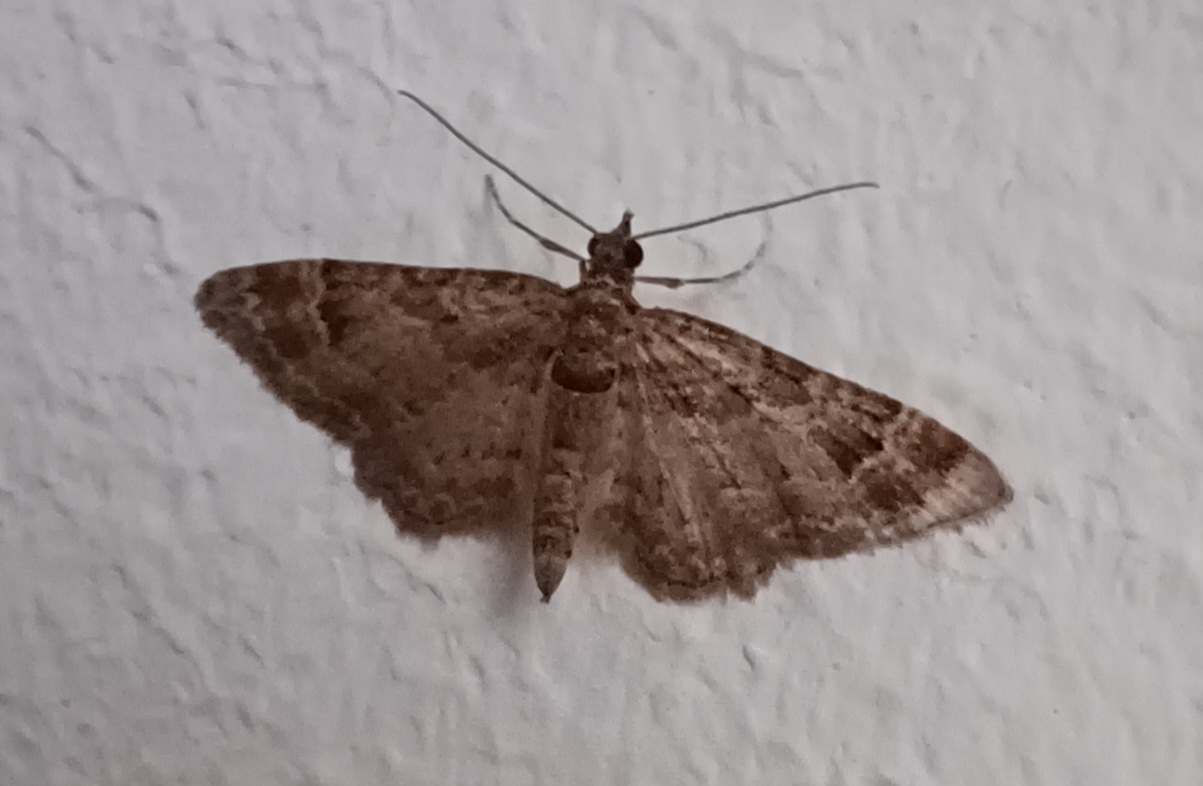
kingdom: Animalia
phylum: Arthropoda
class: Insecta
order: Lepidoptera
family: Geometridae
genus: Gymnoscelis
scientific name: Gymnoscelis rufifasciata
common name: Double-striped pug
